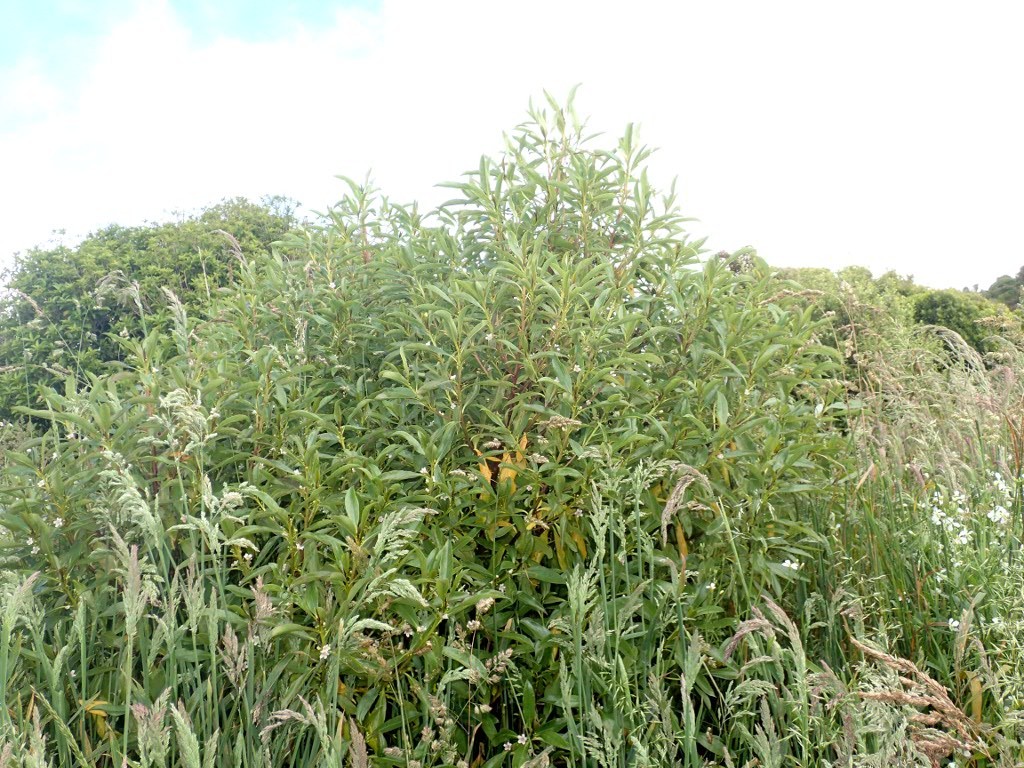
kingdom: Plantae
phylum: Tracheophyta
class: Magnoliopsida
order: Lamiales
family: Scrophulariaceae
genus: Myoporum
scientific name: Myoporum laetum
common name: Ngaio tree
